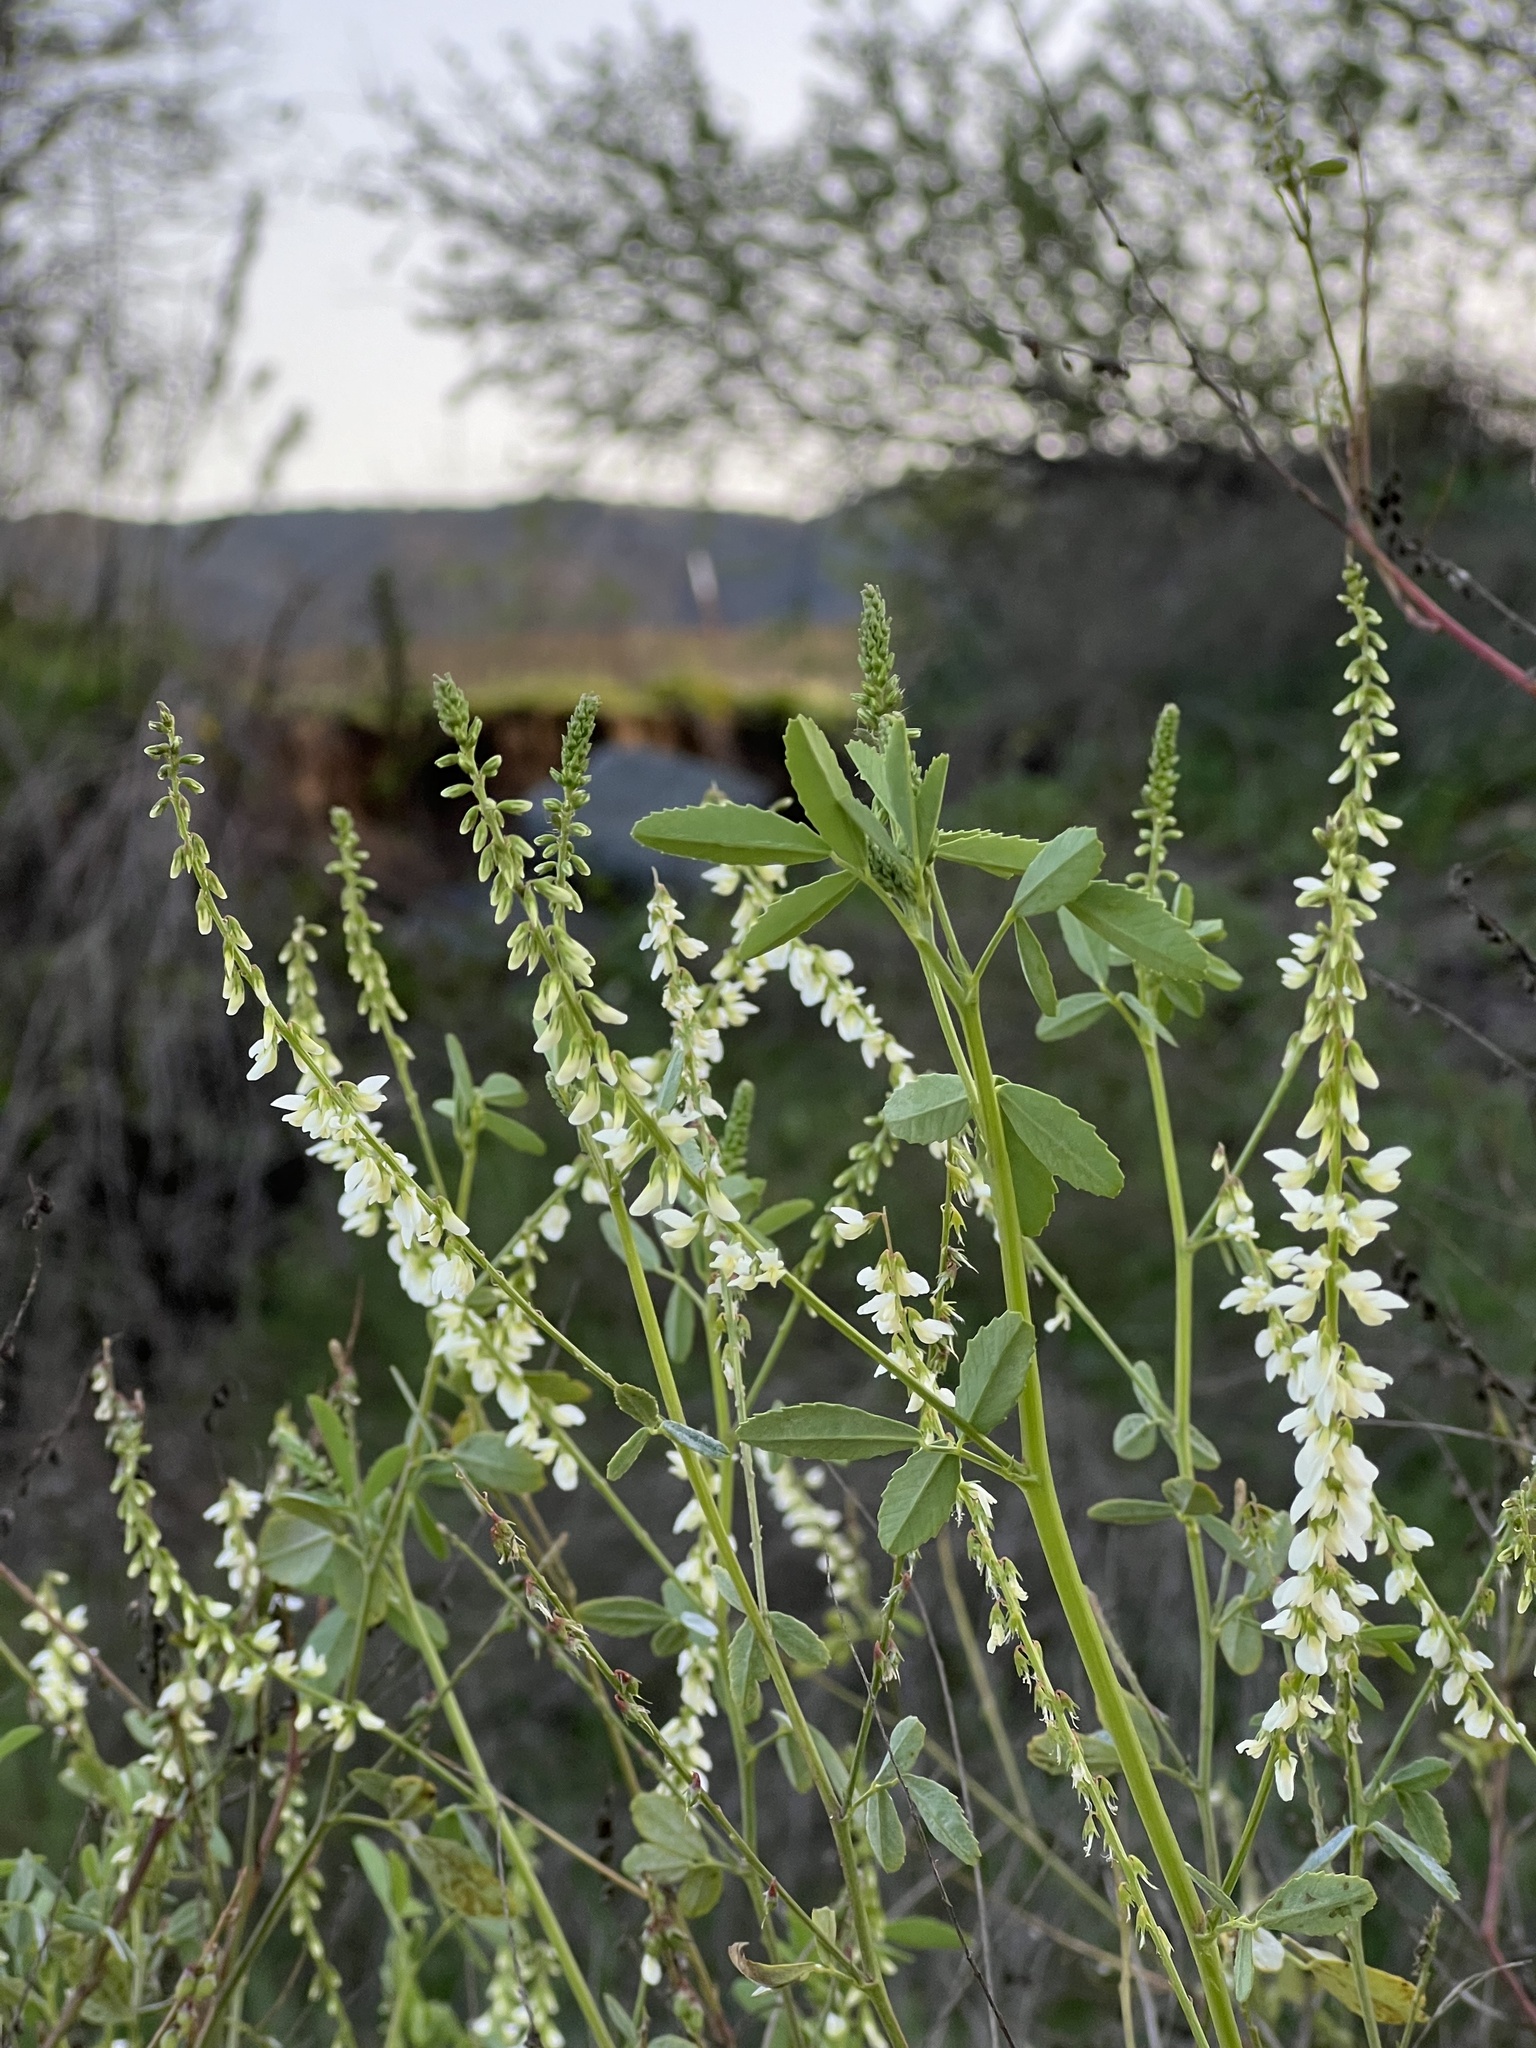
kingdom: Plantae
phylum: Tracheophyta
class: Magnoliopsida
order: Fabales
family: Fabaceae
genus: Melilotus
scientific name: Melilotus albus
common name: White melilot
